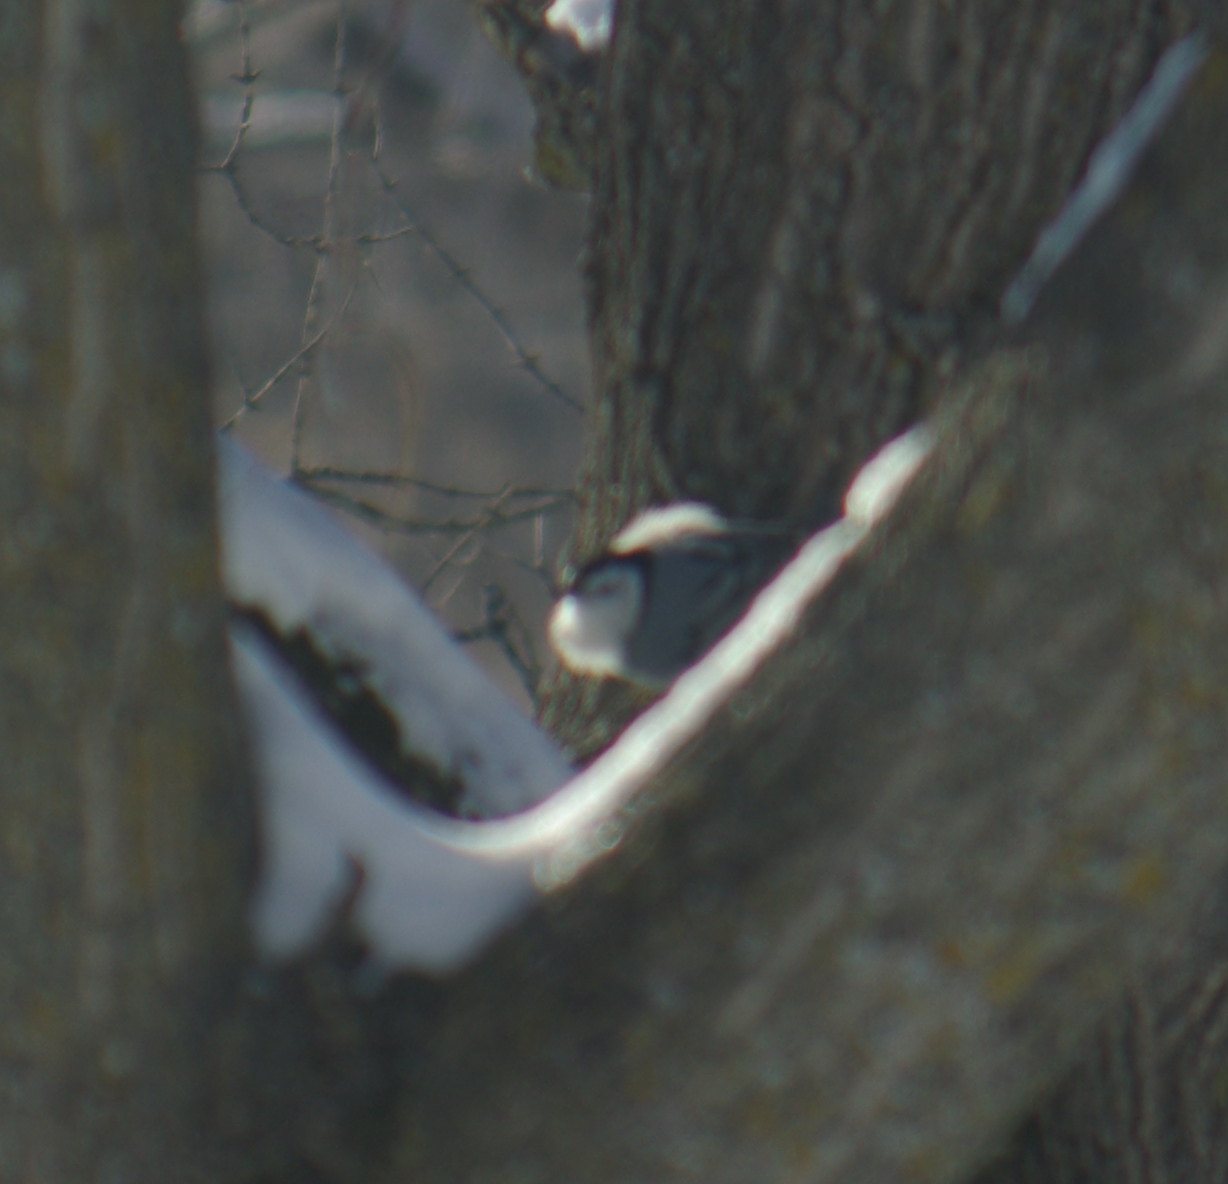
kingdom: Animalia
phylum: Chordata
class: Aves
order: Passeriformes
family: Sittidae
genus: Sitta
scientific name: Sitta carolinensis
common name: White-breasted nuthatch
